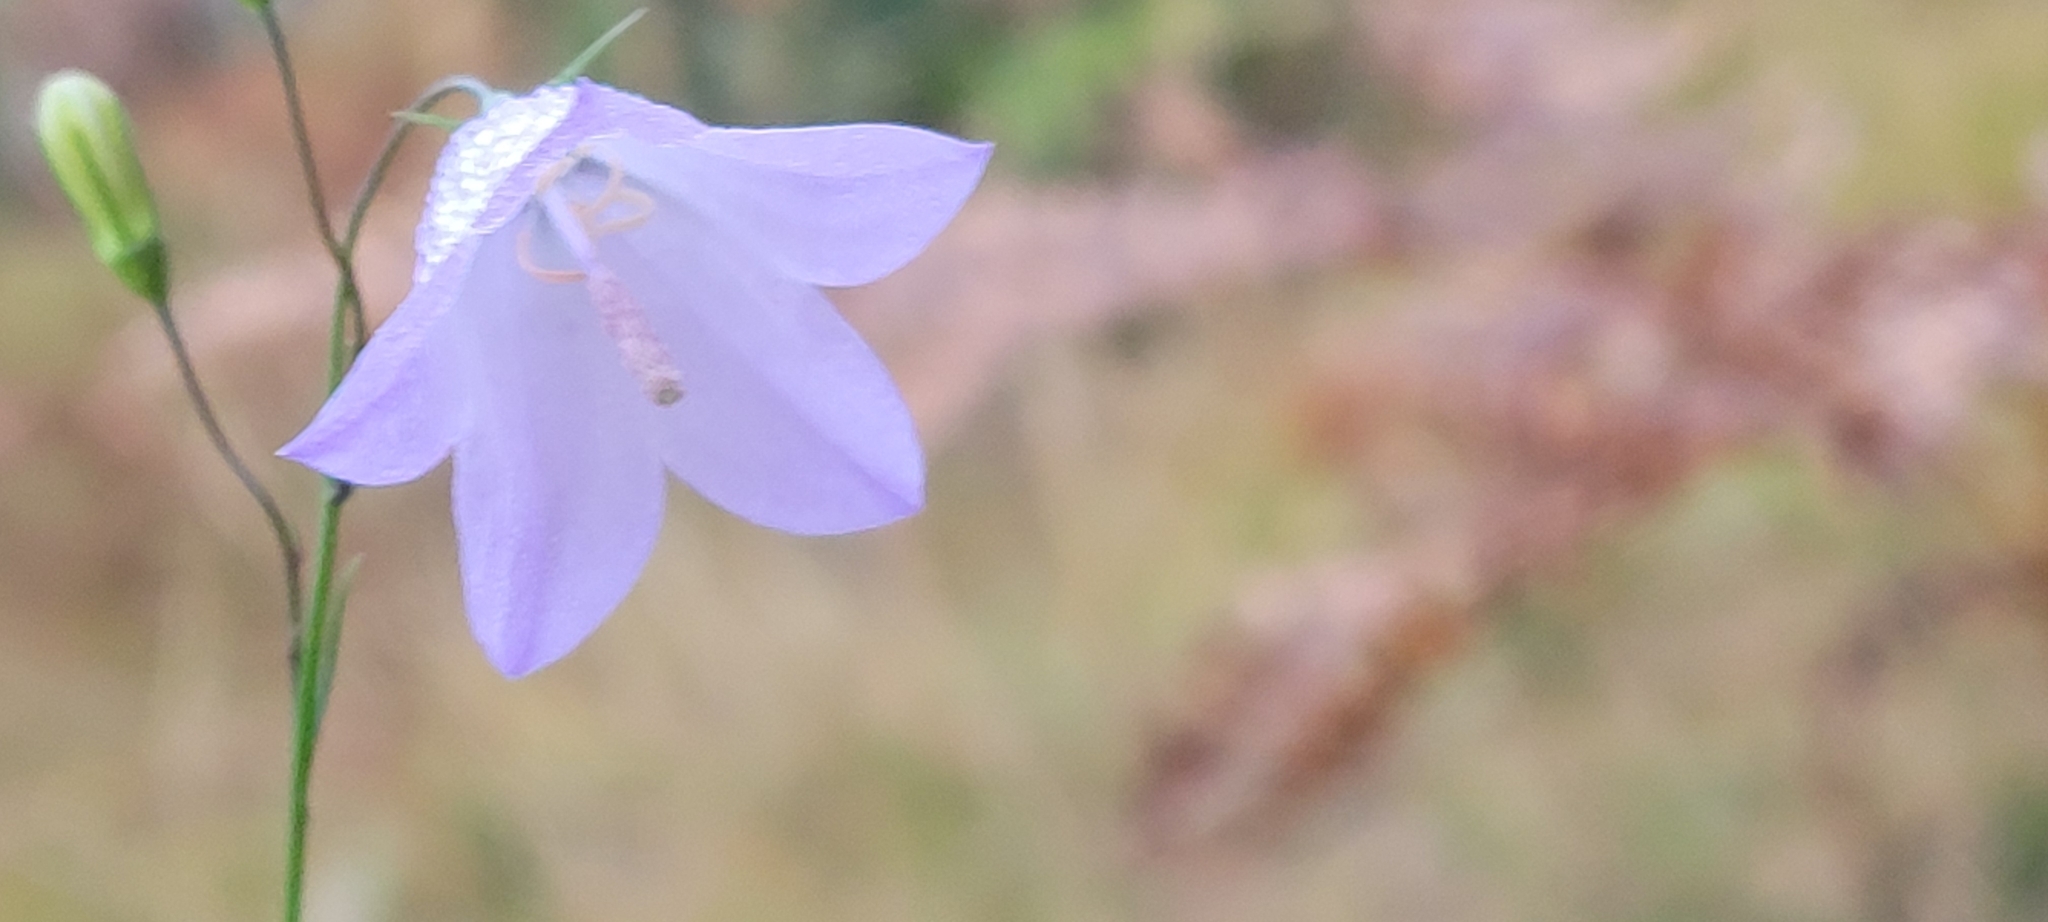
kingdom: Plantae
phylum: Tracheophyta
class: Magnoliopsida
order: Asterales
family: Campanulaceae
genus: Campanula
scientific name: Campanula intercedens
